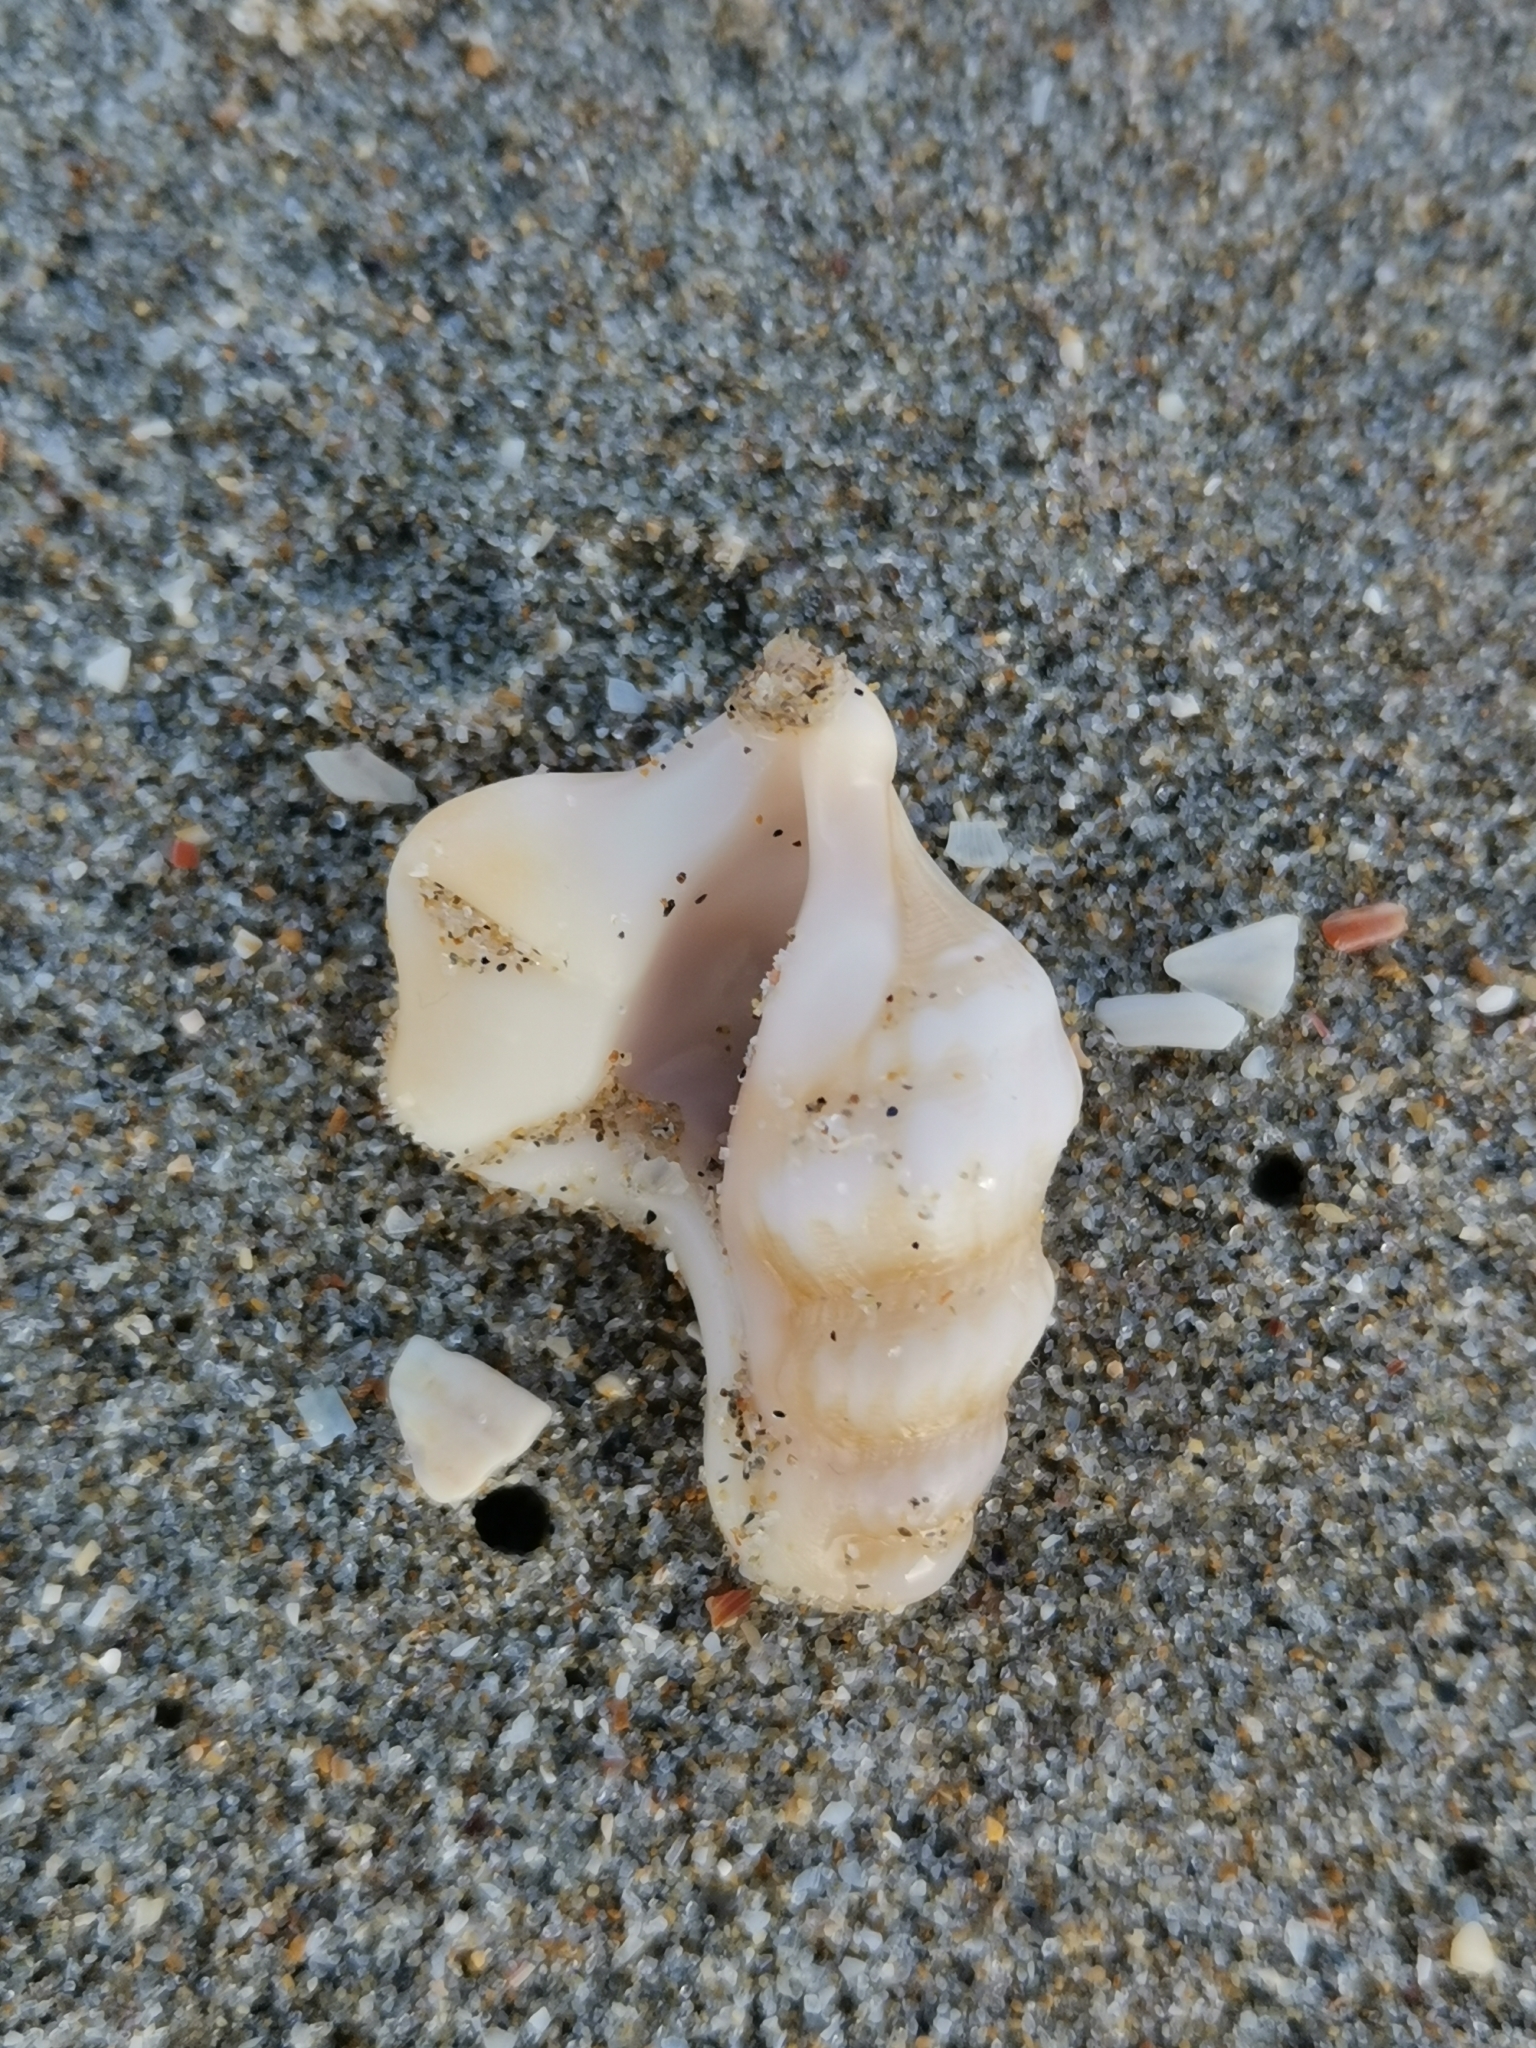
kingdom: Animalia
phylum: Mollusca
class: Gastropoda
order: Littorinimorpha
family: Aporrhaidae
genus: Aporrhais
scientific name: Aporrhais pespelecani
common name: Common pelican’s foot
